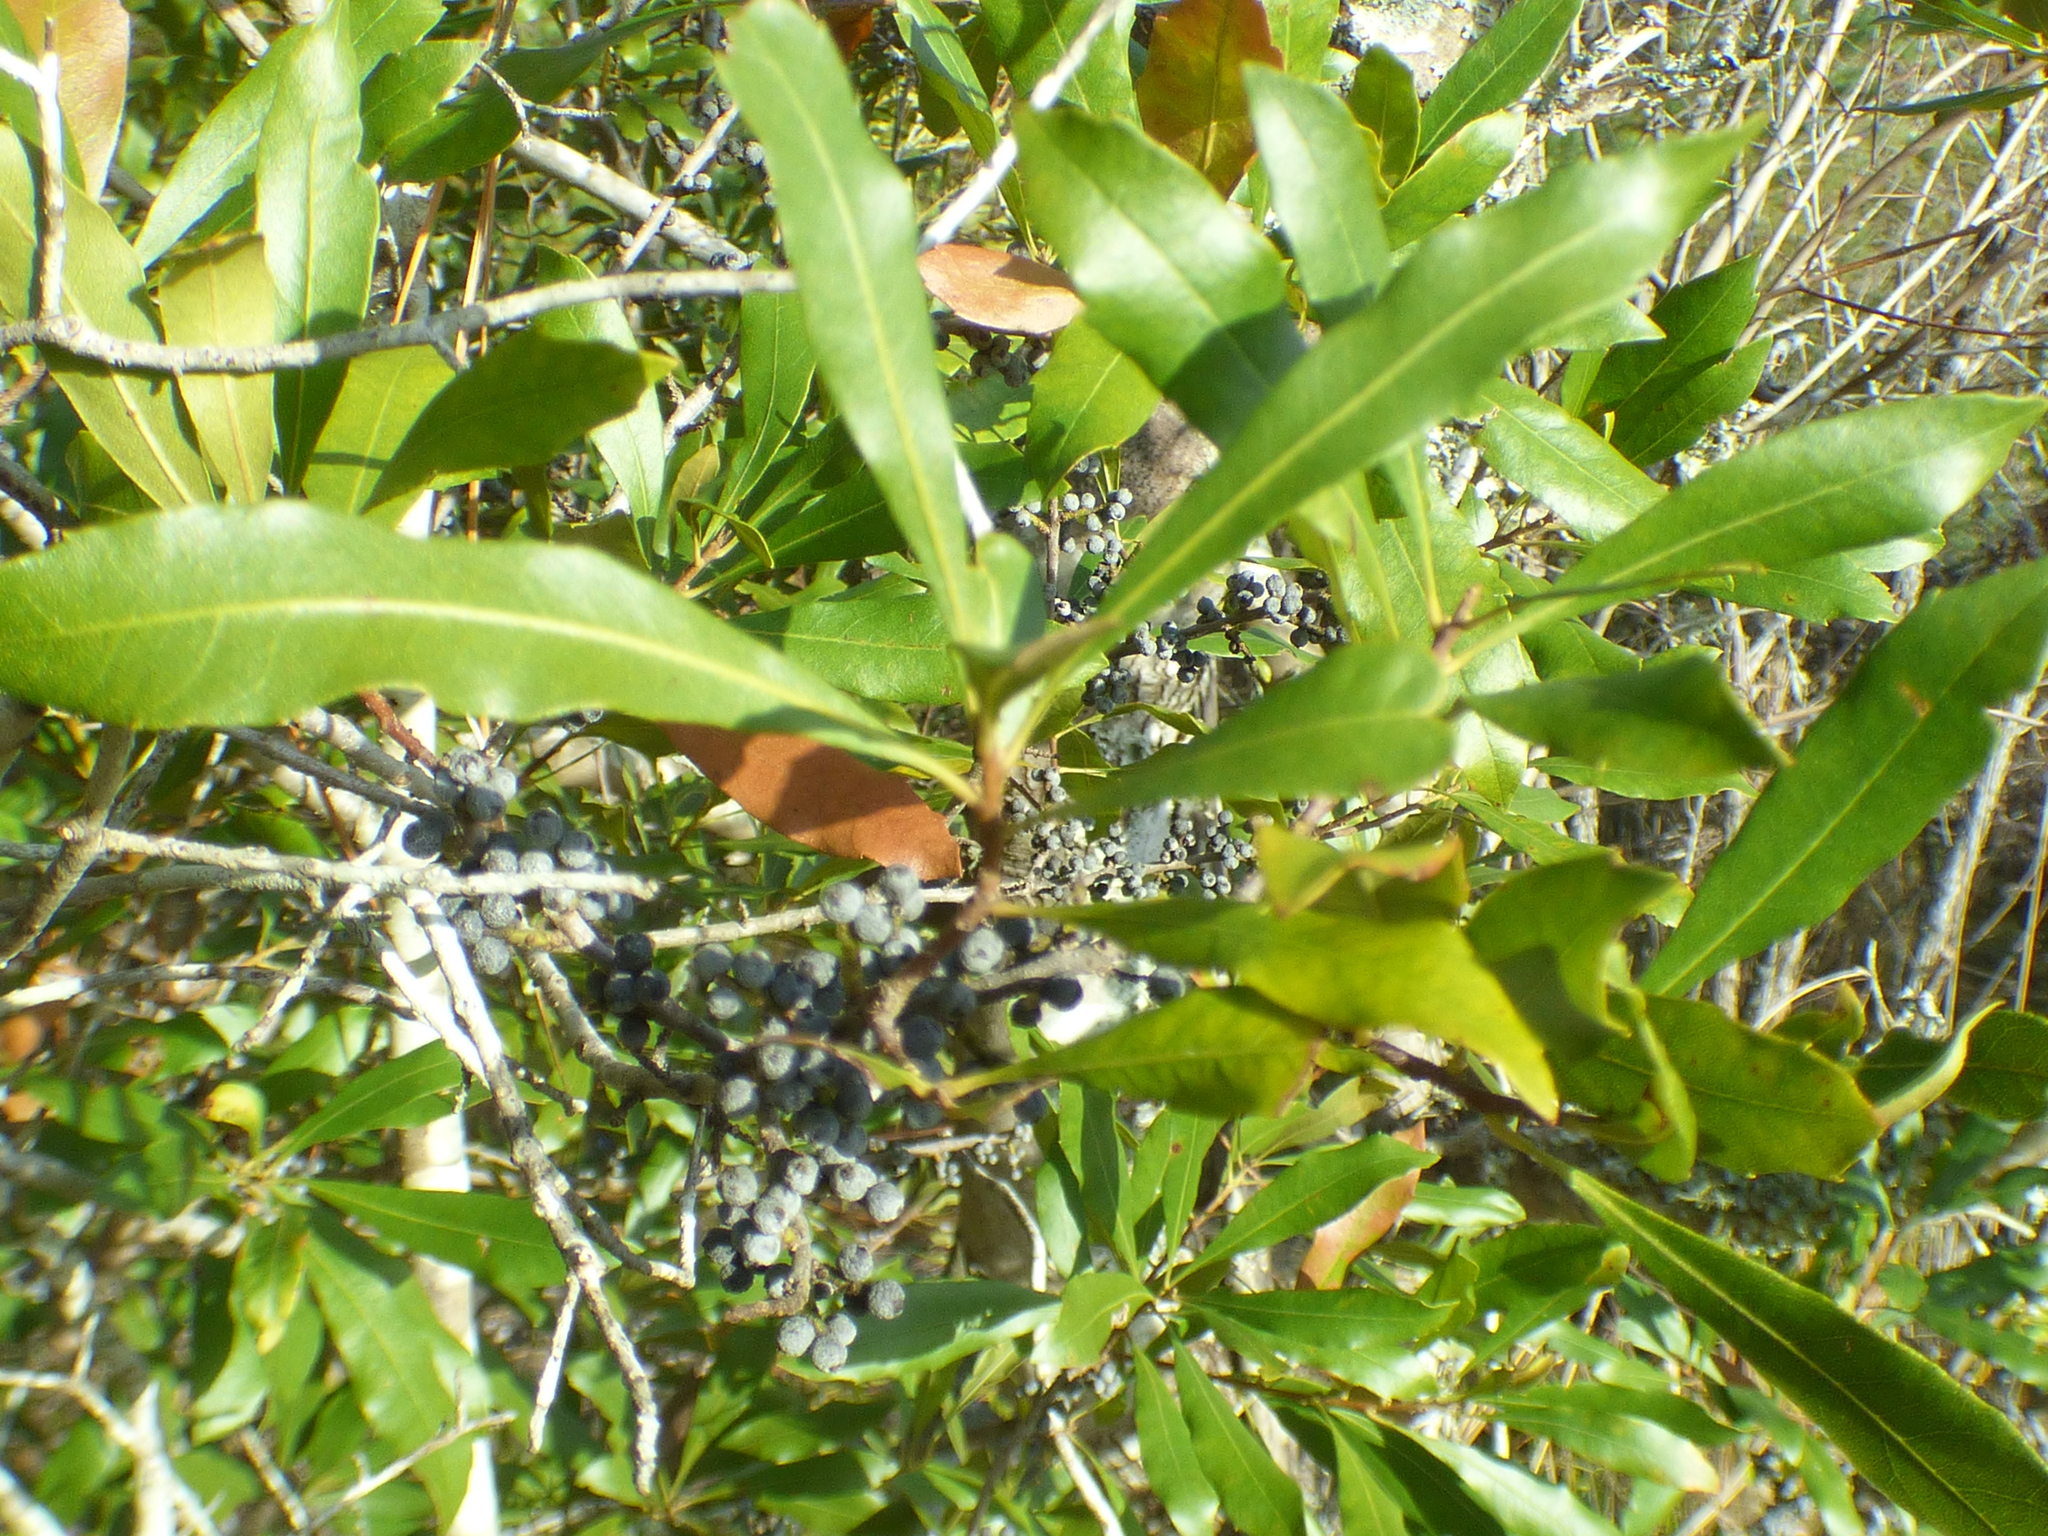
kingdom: Plantae
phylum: Tracheophyta
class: Magnoliopsida
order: Fagales
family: Myricaceae
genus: Morella
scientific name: Morella cerifera
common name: Wax myrtle
